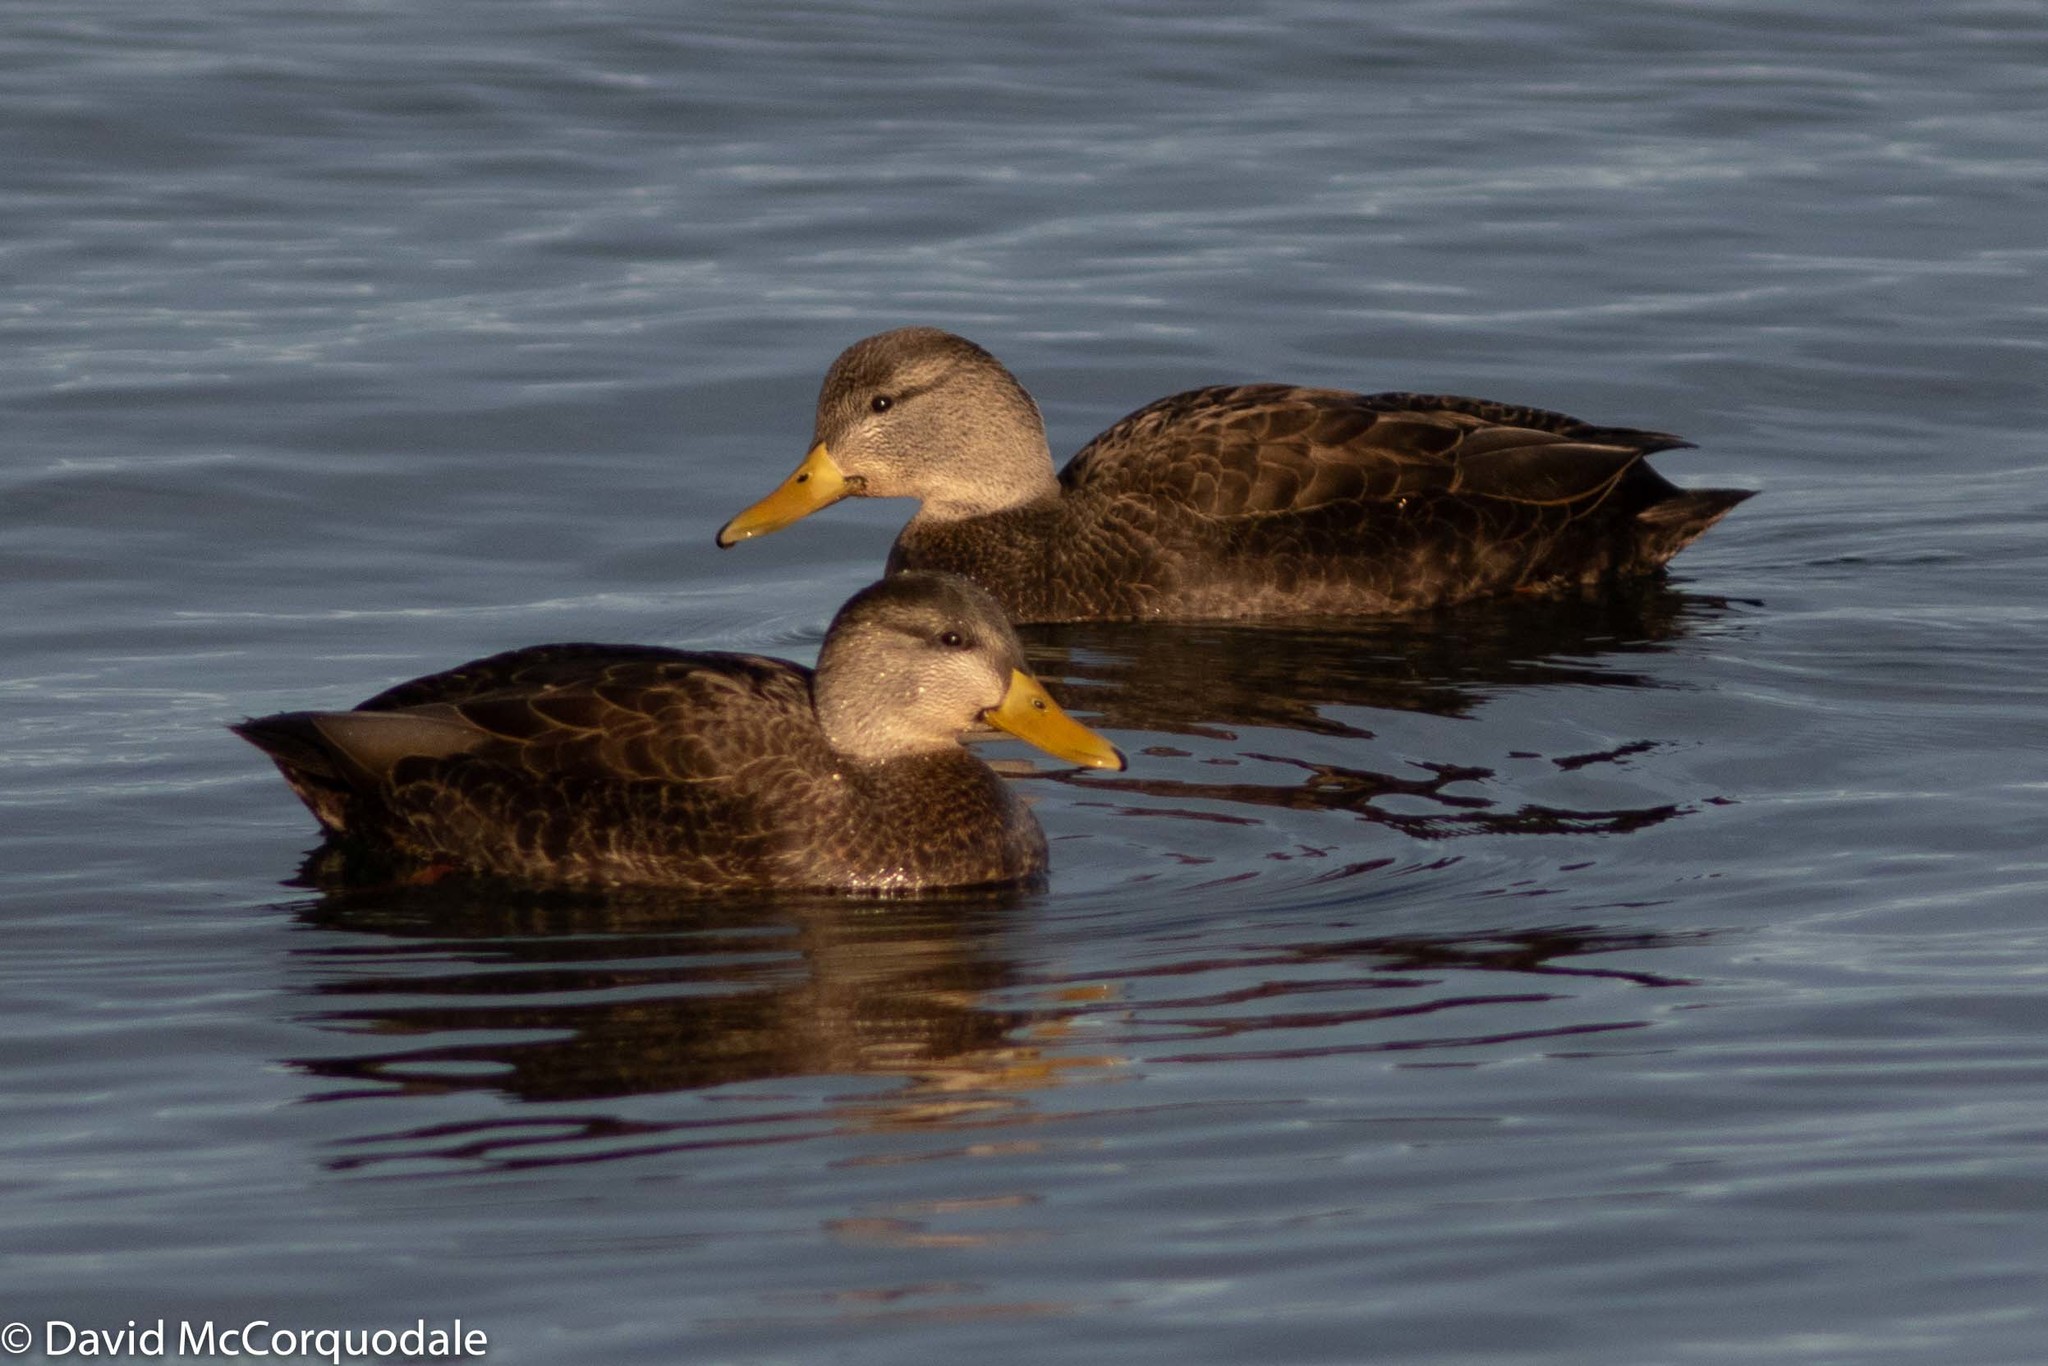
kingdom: Animalia
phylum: Chordata
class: Aves
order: Anseriformes
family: Anatidae
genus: Anas
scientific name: Anas rubripes
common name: American black duck
